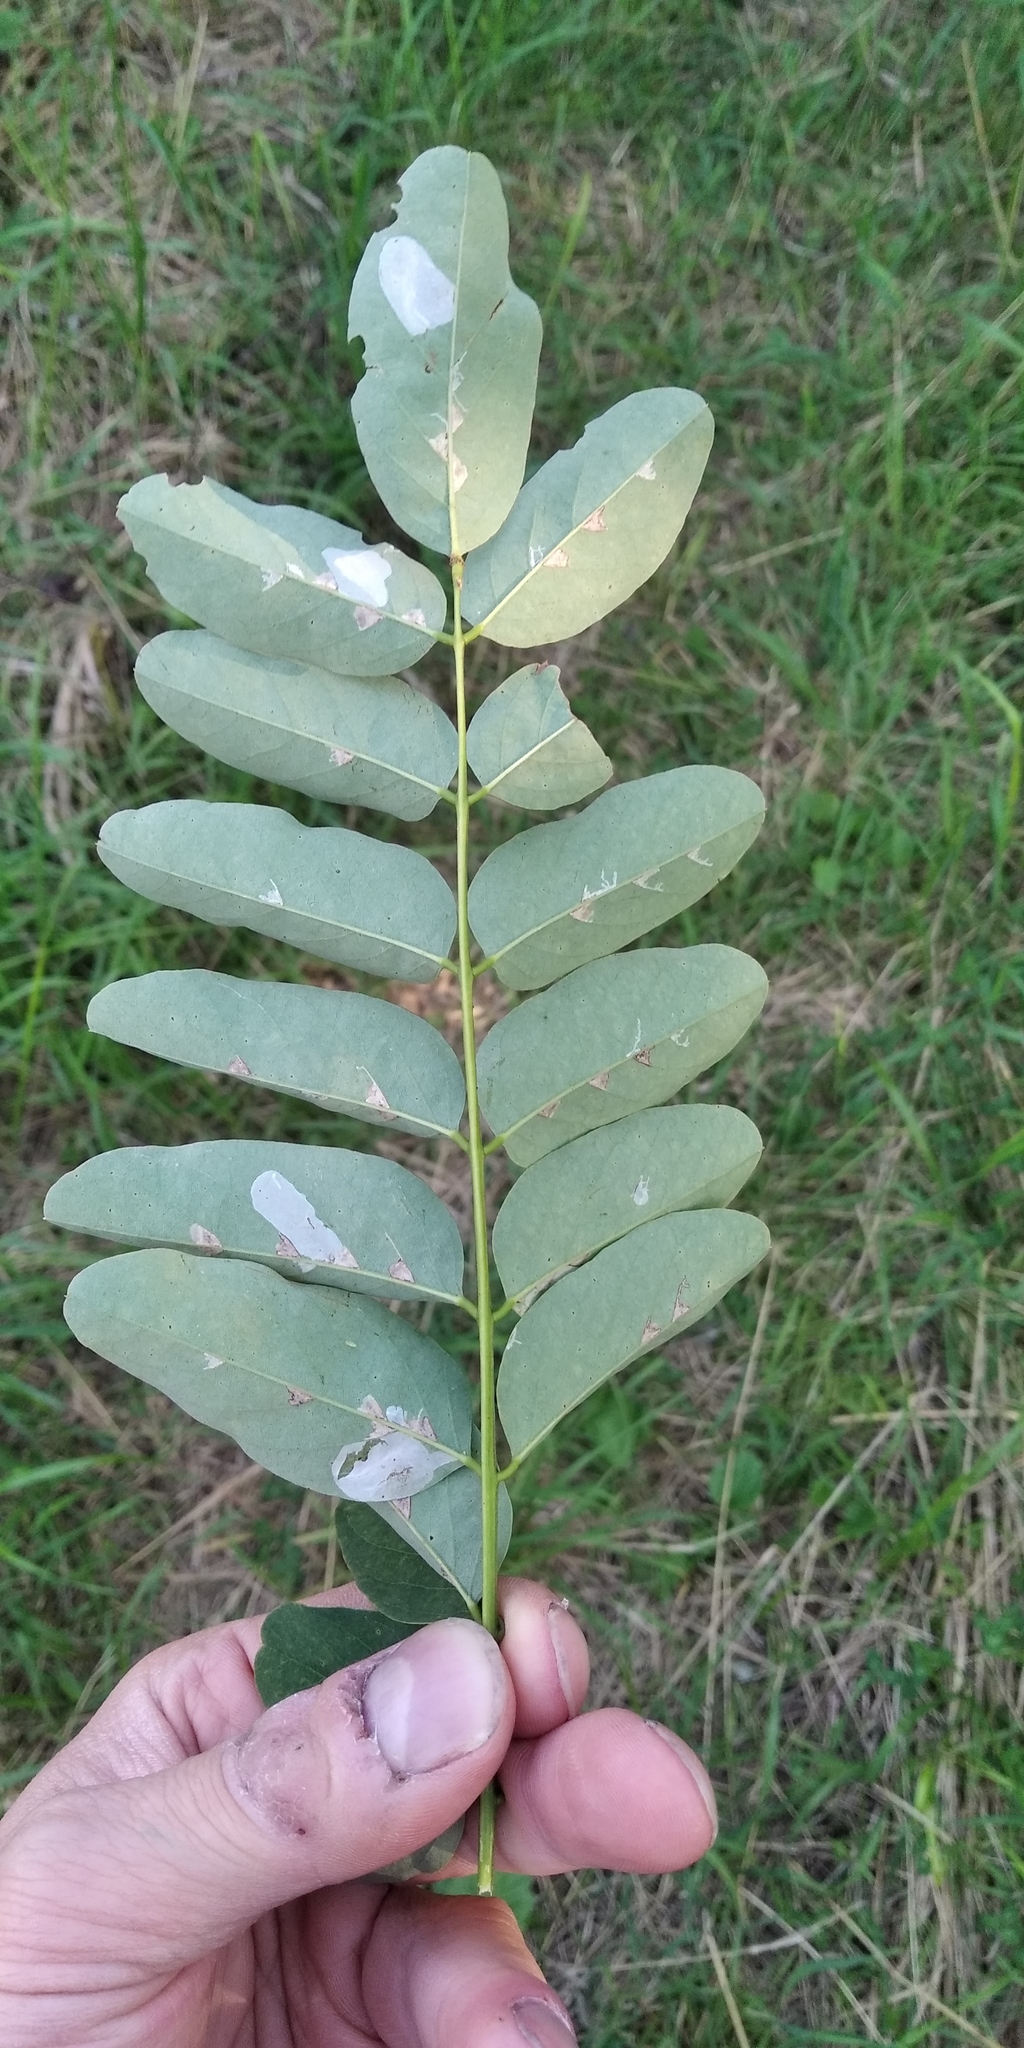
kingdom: Animalia
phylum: Arthropoda
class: Insecta
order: Lepidoptera
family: Gracillariidae
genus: Macrosaccus
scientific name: Macrosaccus robiniella
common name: Leaf blotch miner moth
